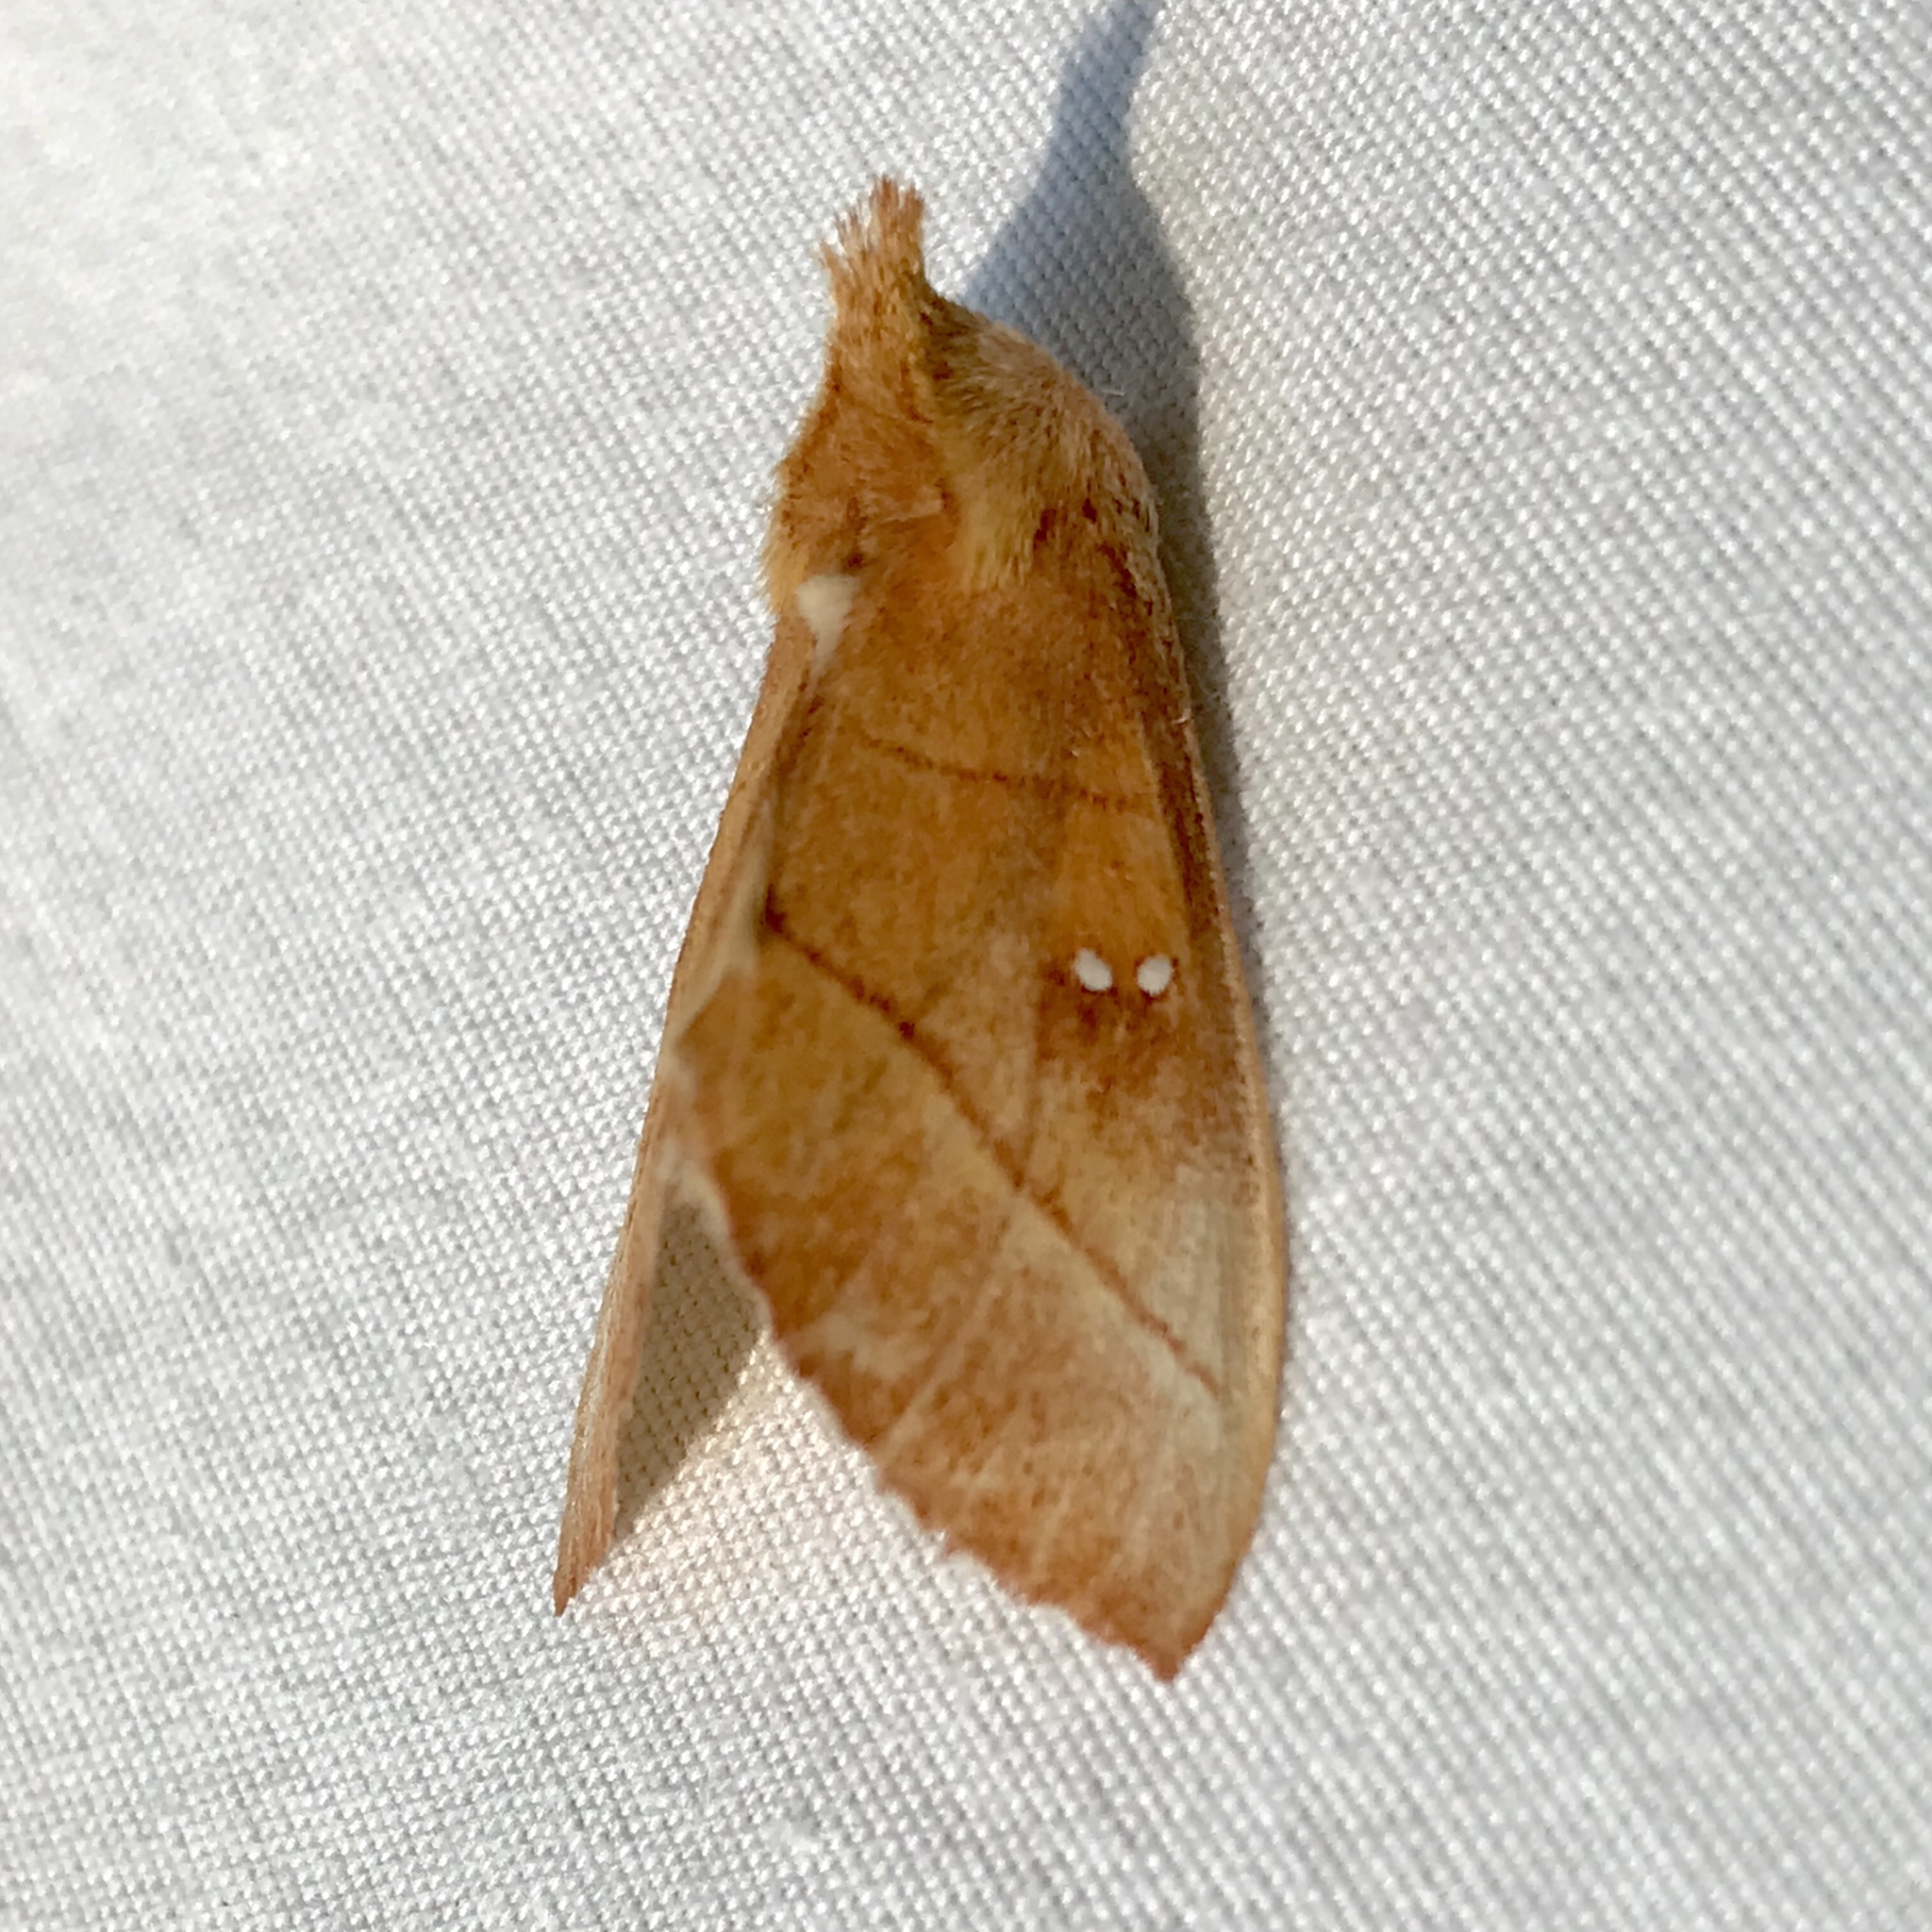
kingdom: Animalia
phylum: Arthropoda
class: Insecta
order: Lepidoptera
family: Notodontidae
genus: Nadata
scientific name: Nadata gibbosa
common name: White-dotted prominent
